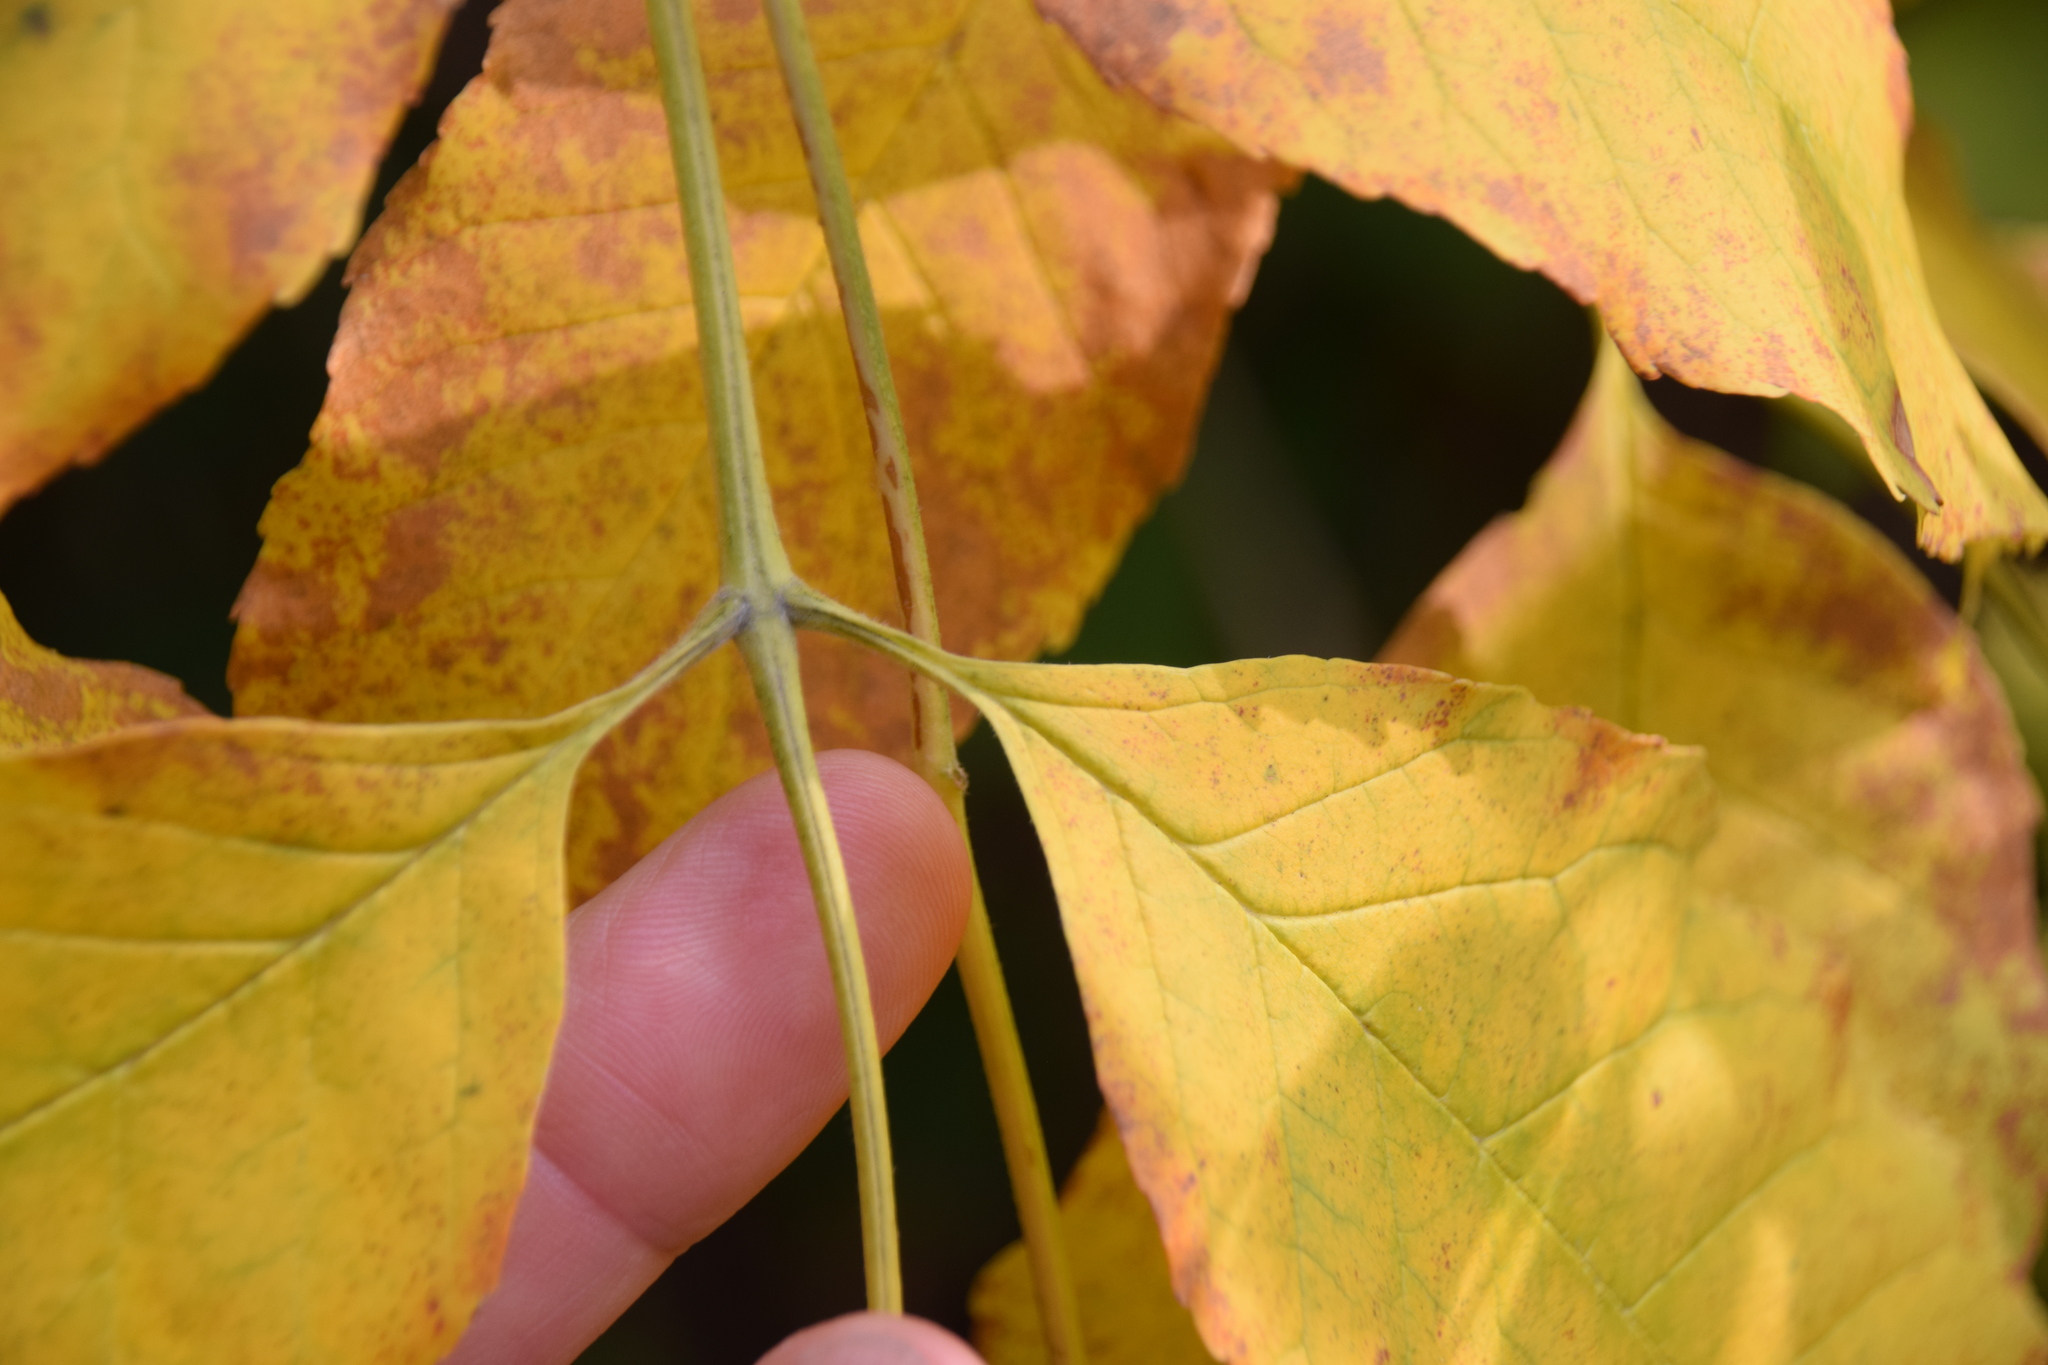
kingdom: Plantae
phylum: Tracheophyta
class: Magnoliopsida
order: Lamiales
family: Oleaceae
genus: Fraxinus
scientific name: Fraxinus pennsylvanica
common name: Green ash
